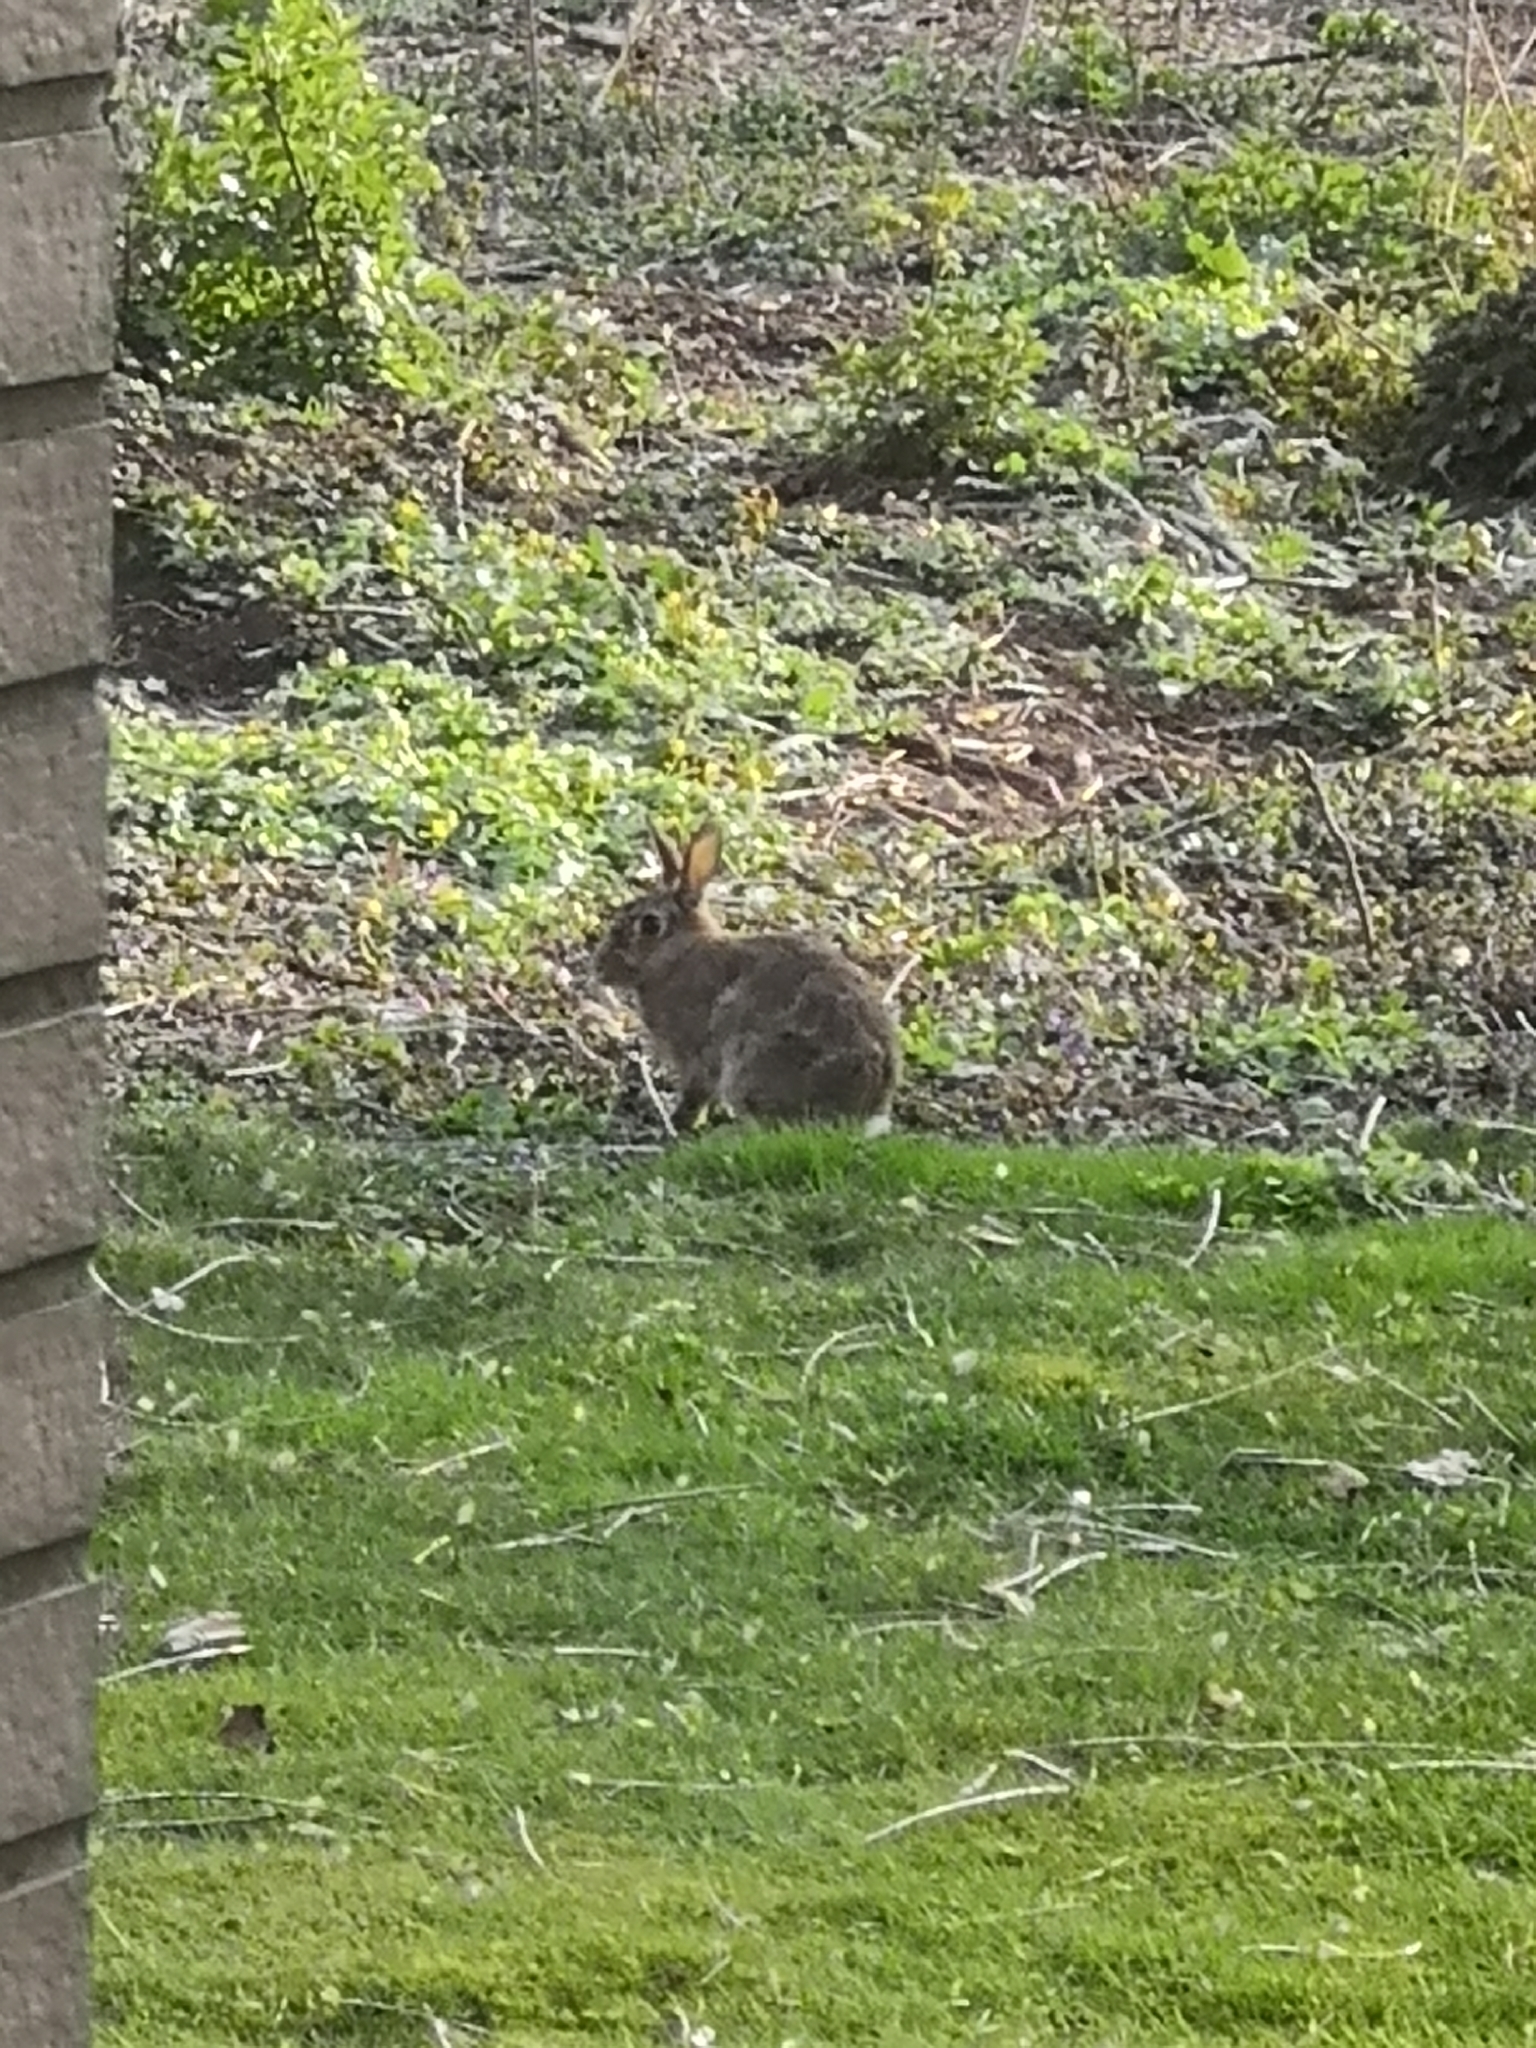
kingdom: Animalia
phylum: Chordata
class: Mammalia
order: Lagomorpha
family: Leporidae
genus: Oryctolagus
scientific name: Oryctolagus cuniculus
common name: European rabbit
